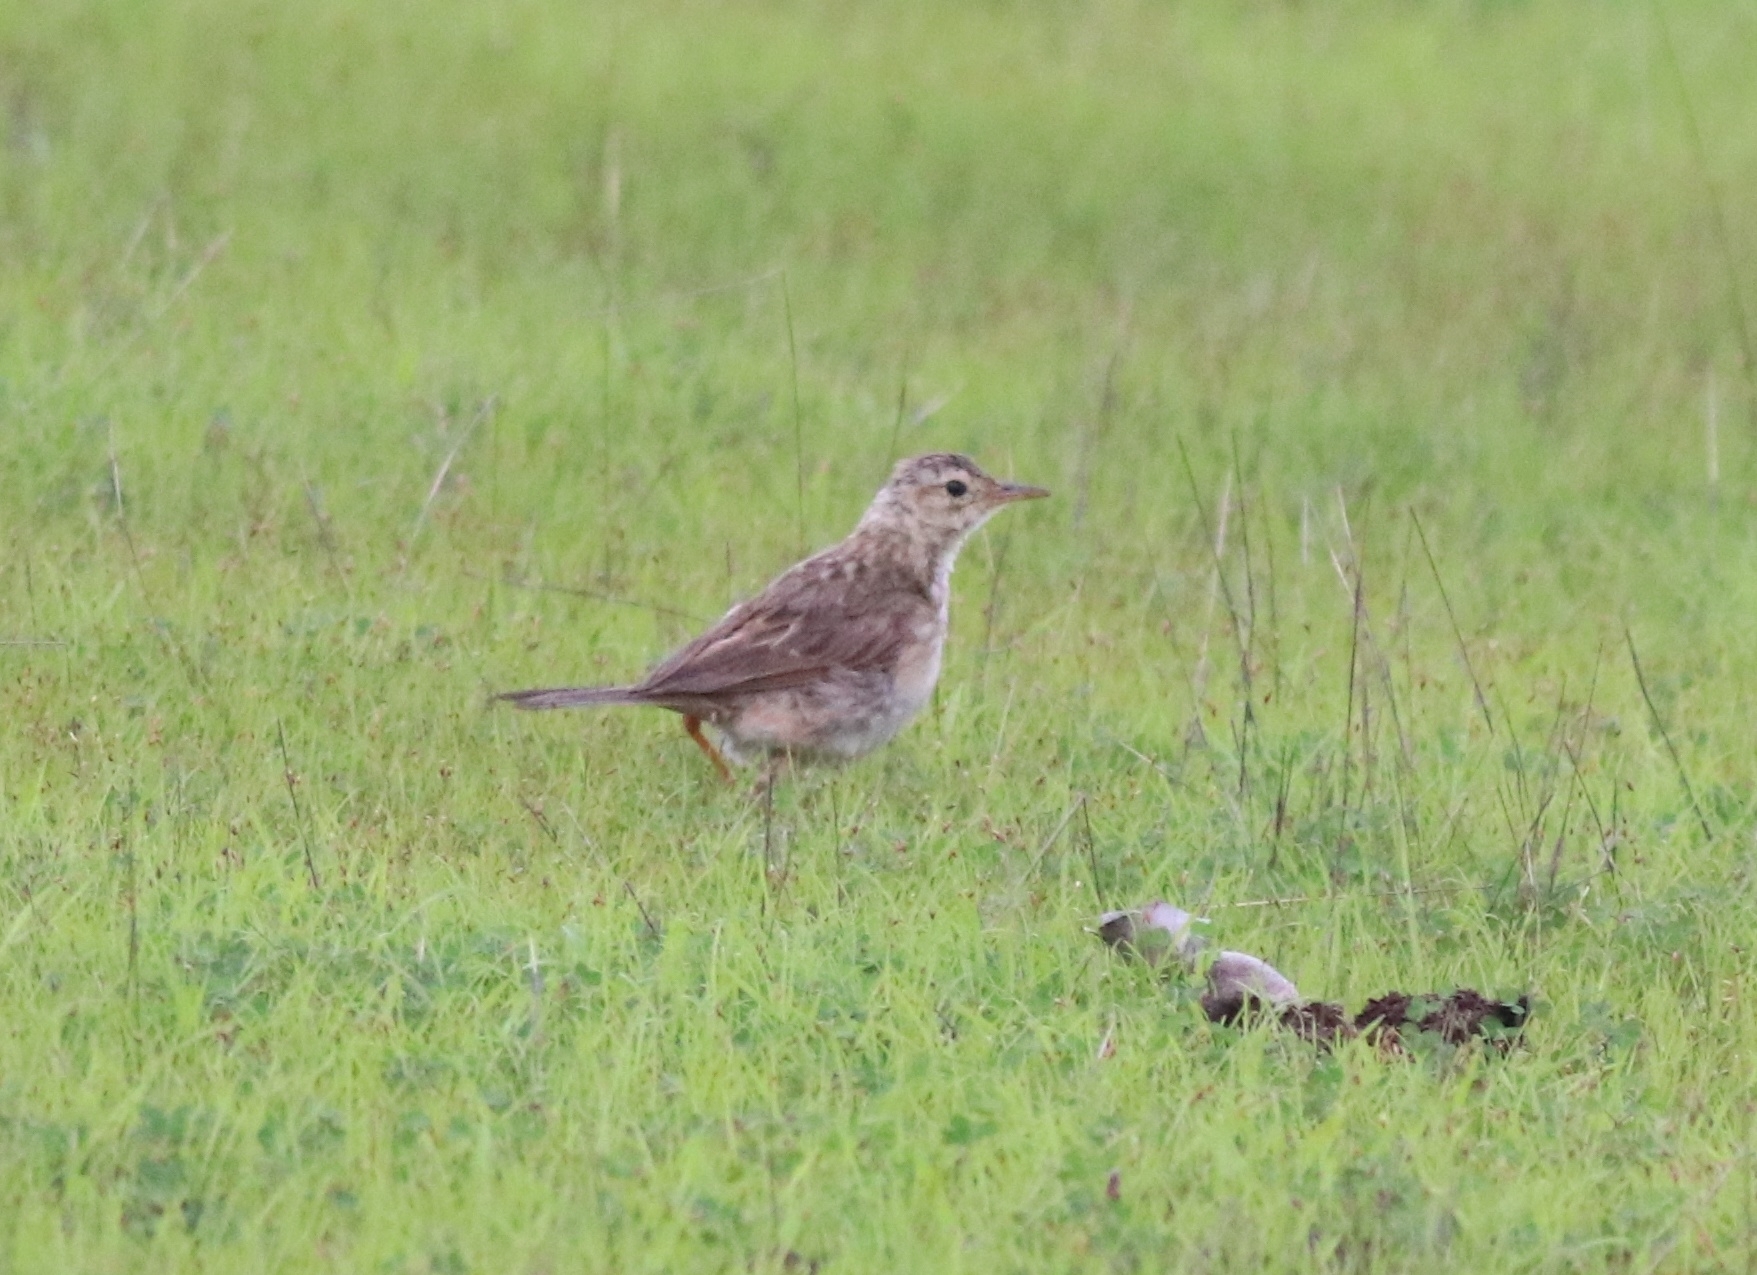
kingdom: Animalia
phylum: Chordata
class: Aves
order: Passeriformes
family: Motacillidae
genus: Anthus
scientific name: Anthus rufulus
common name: Paddyfield pipit
